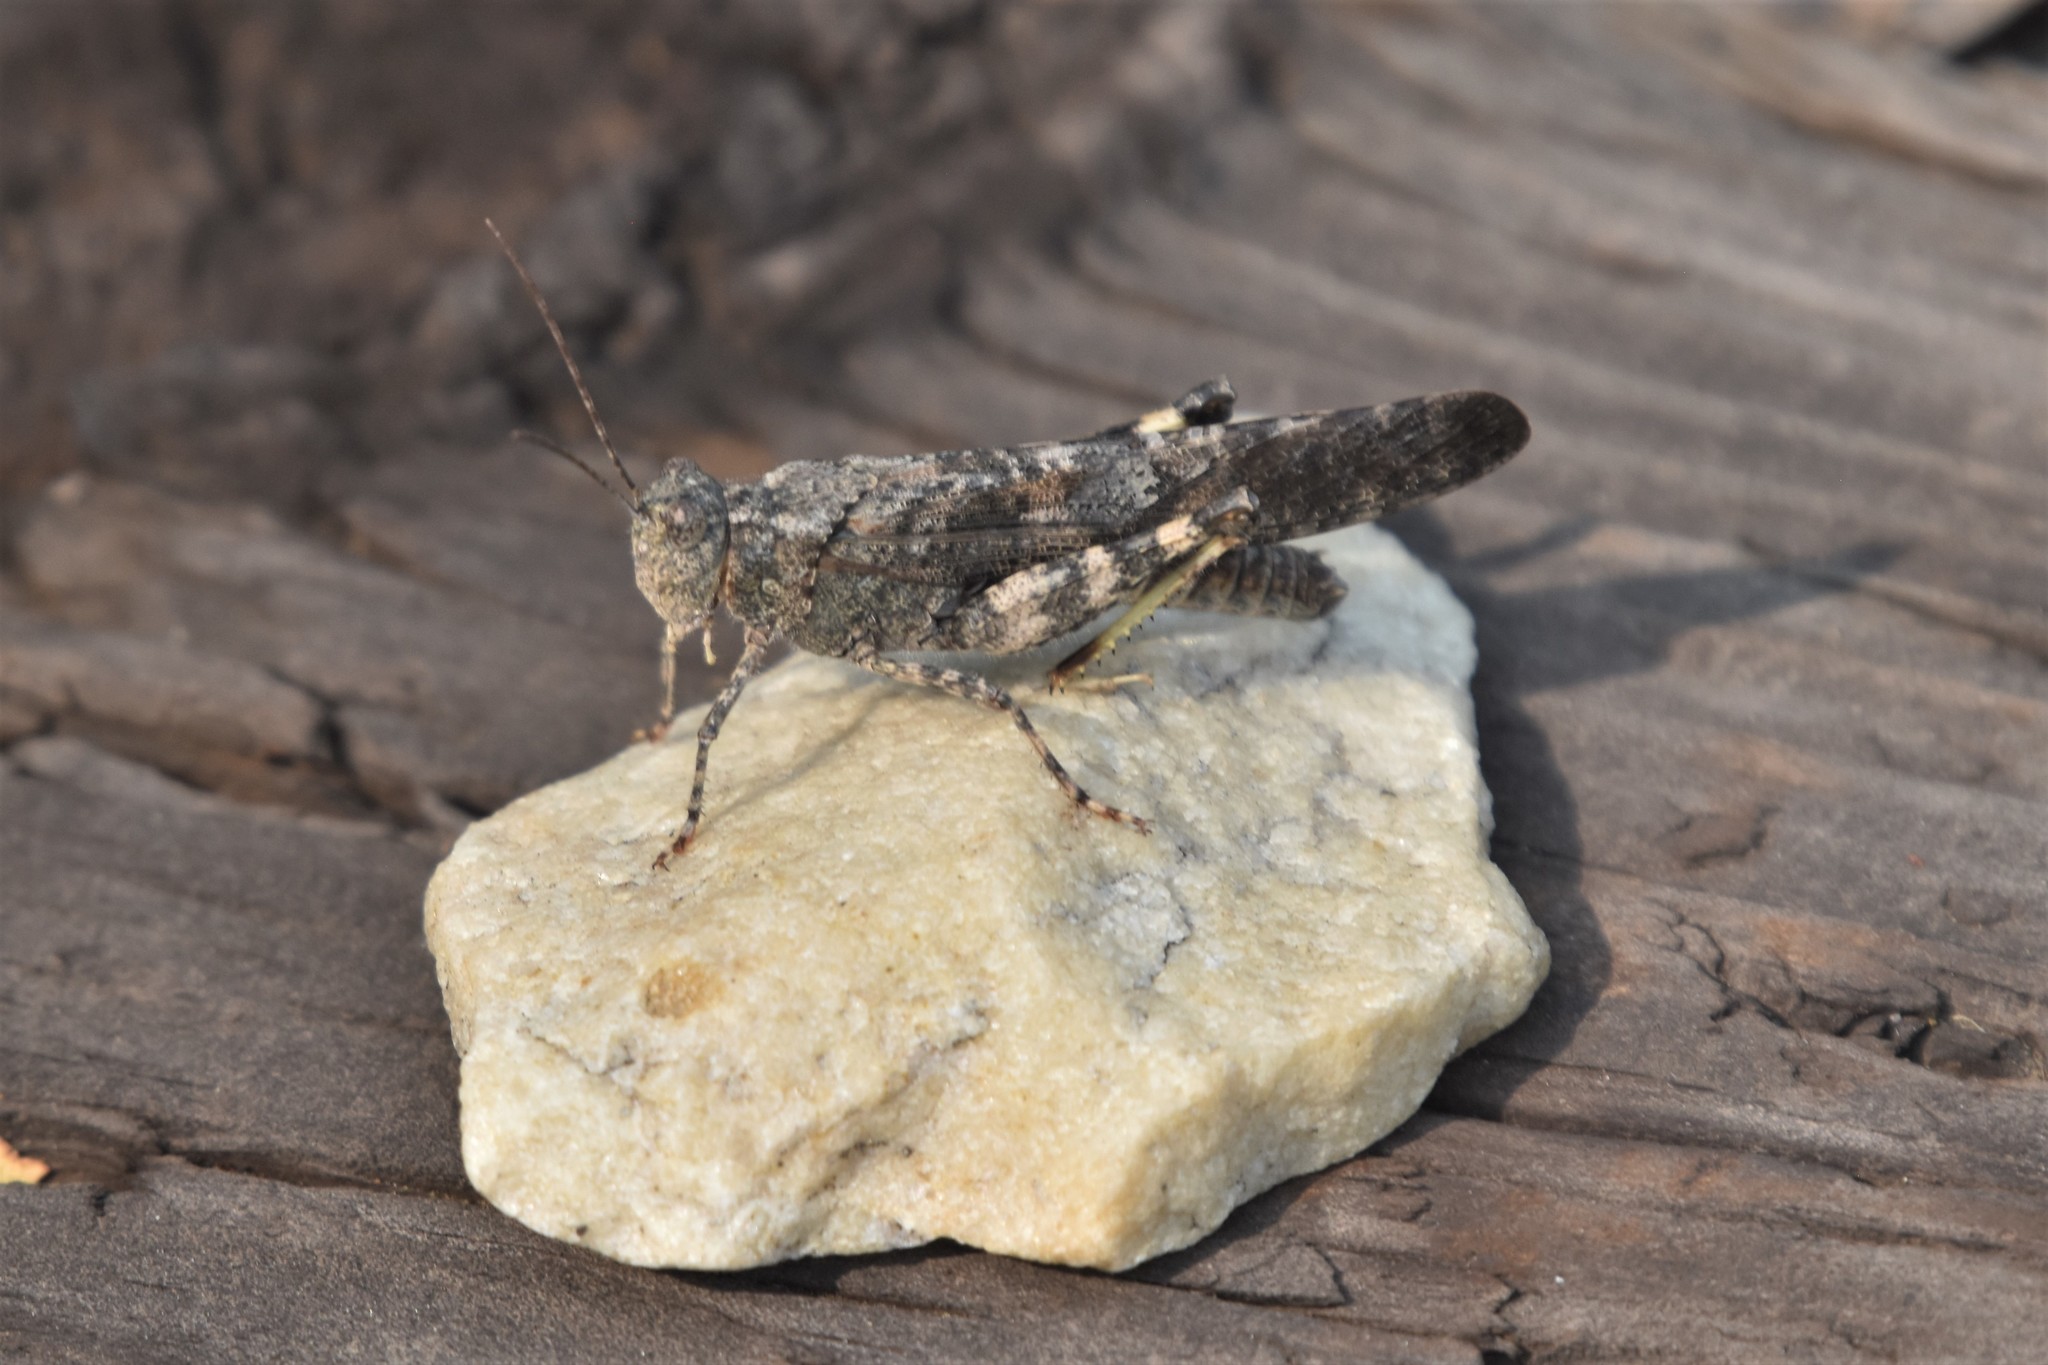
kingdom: Animalia
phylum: Arthropoda
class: Insecta
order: Orthoptera
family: Acrididae
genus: Trimerotropis
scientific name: Trimerotropis verruculata
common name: Crackling forest grasshopper
